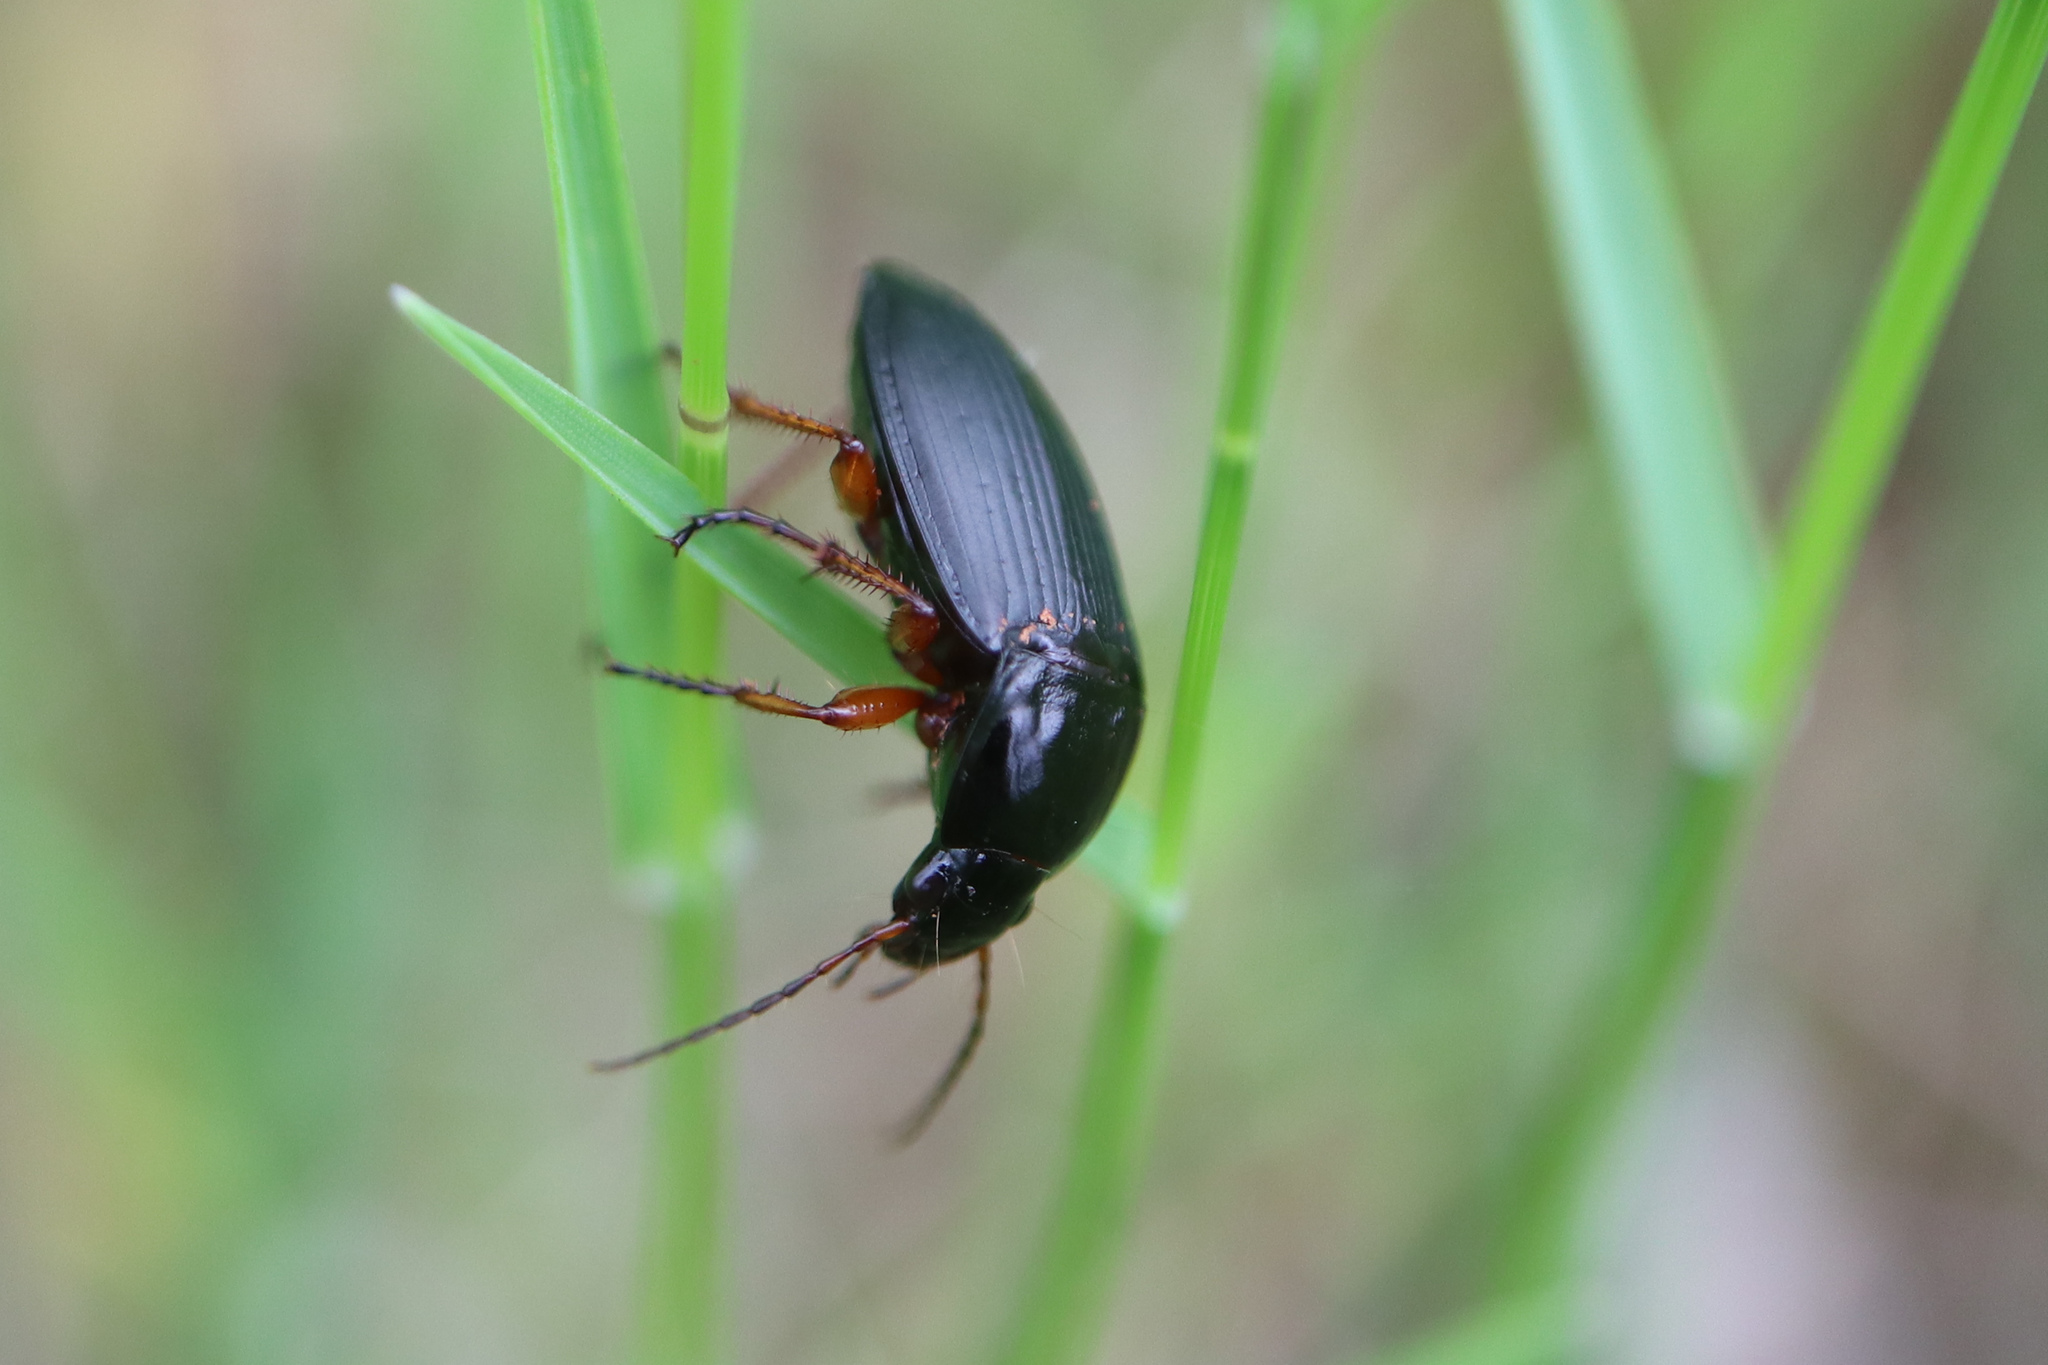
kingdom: Animalia
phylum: Arthropoda
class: Insecta
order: Coleoptera
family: Carabidae
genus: Calathus
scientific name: Calathus fuscipes
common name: Dark-footed harp ground beetle
